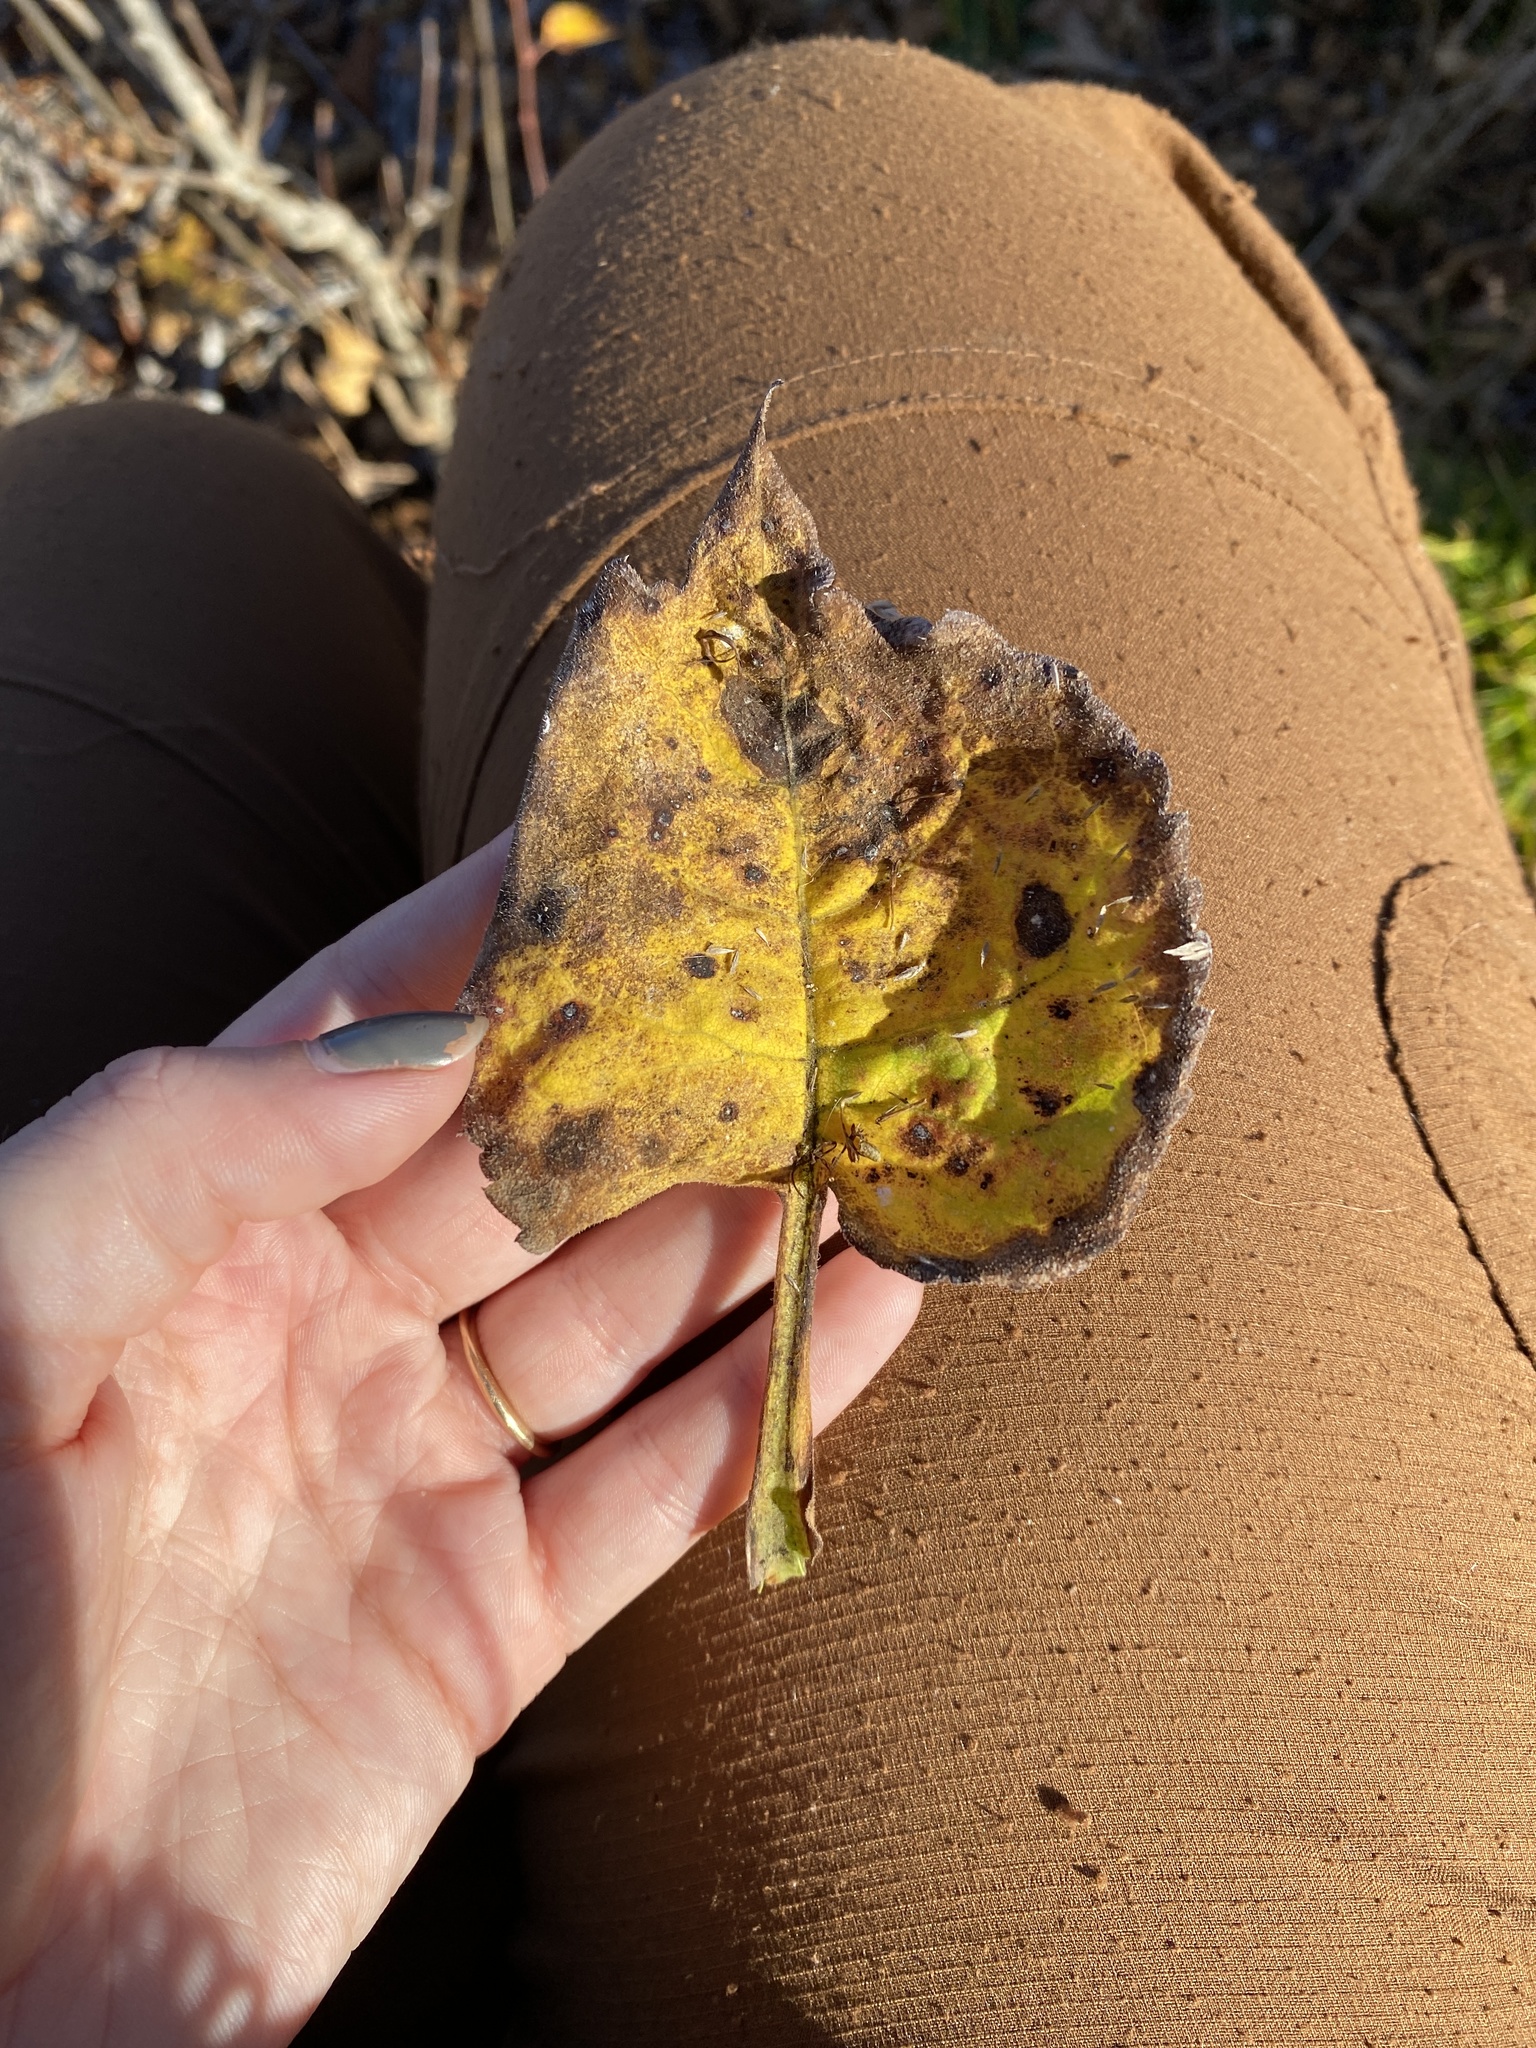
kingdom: Plantae
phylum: Tracheophyta
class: Magnoliopsida
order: Asterales
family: Asteraceae
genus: Eurybia
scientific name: Eurybia macrophylla
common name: Big-leaved aster
